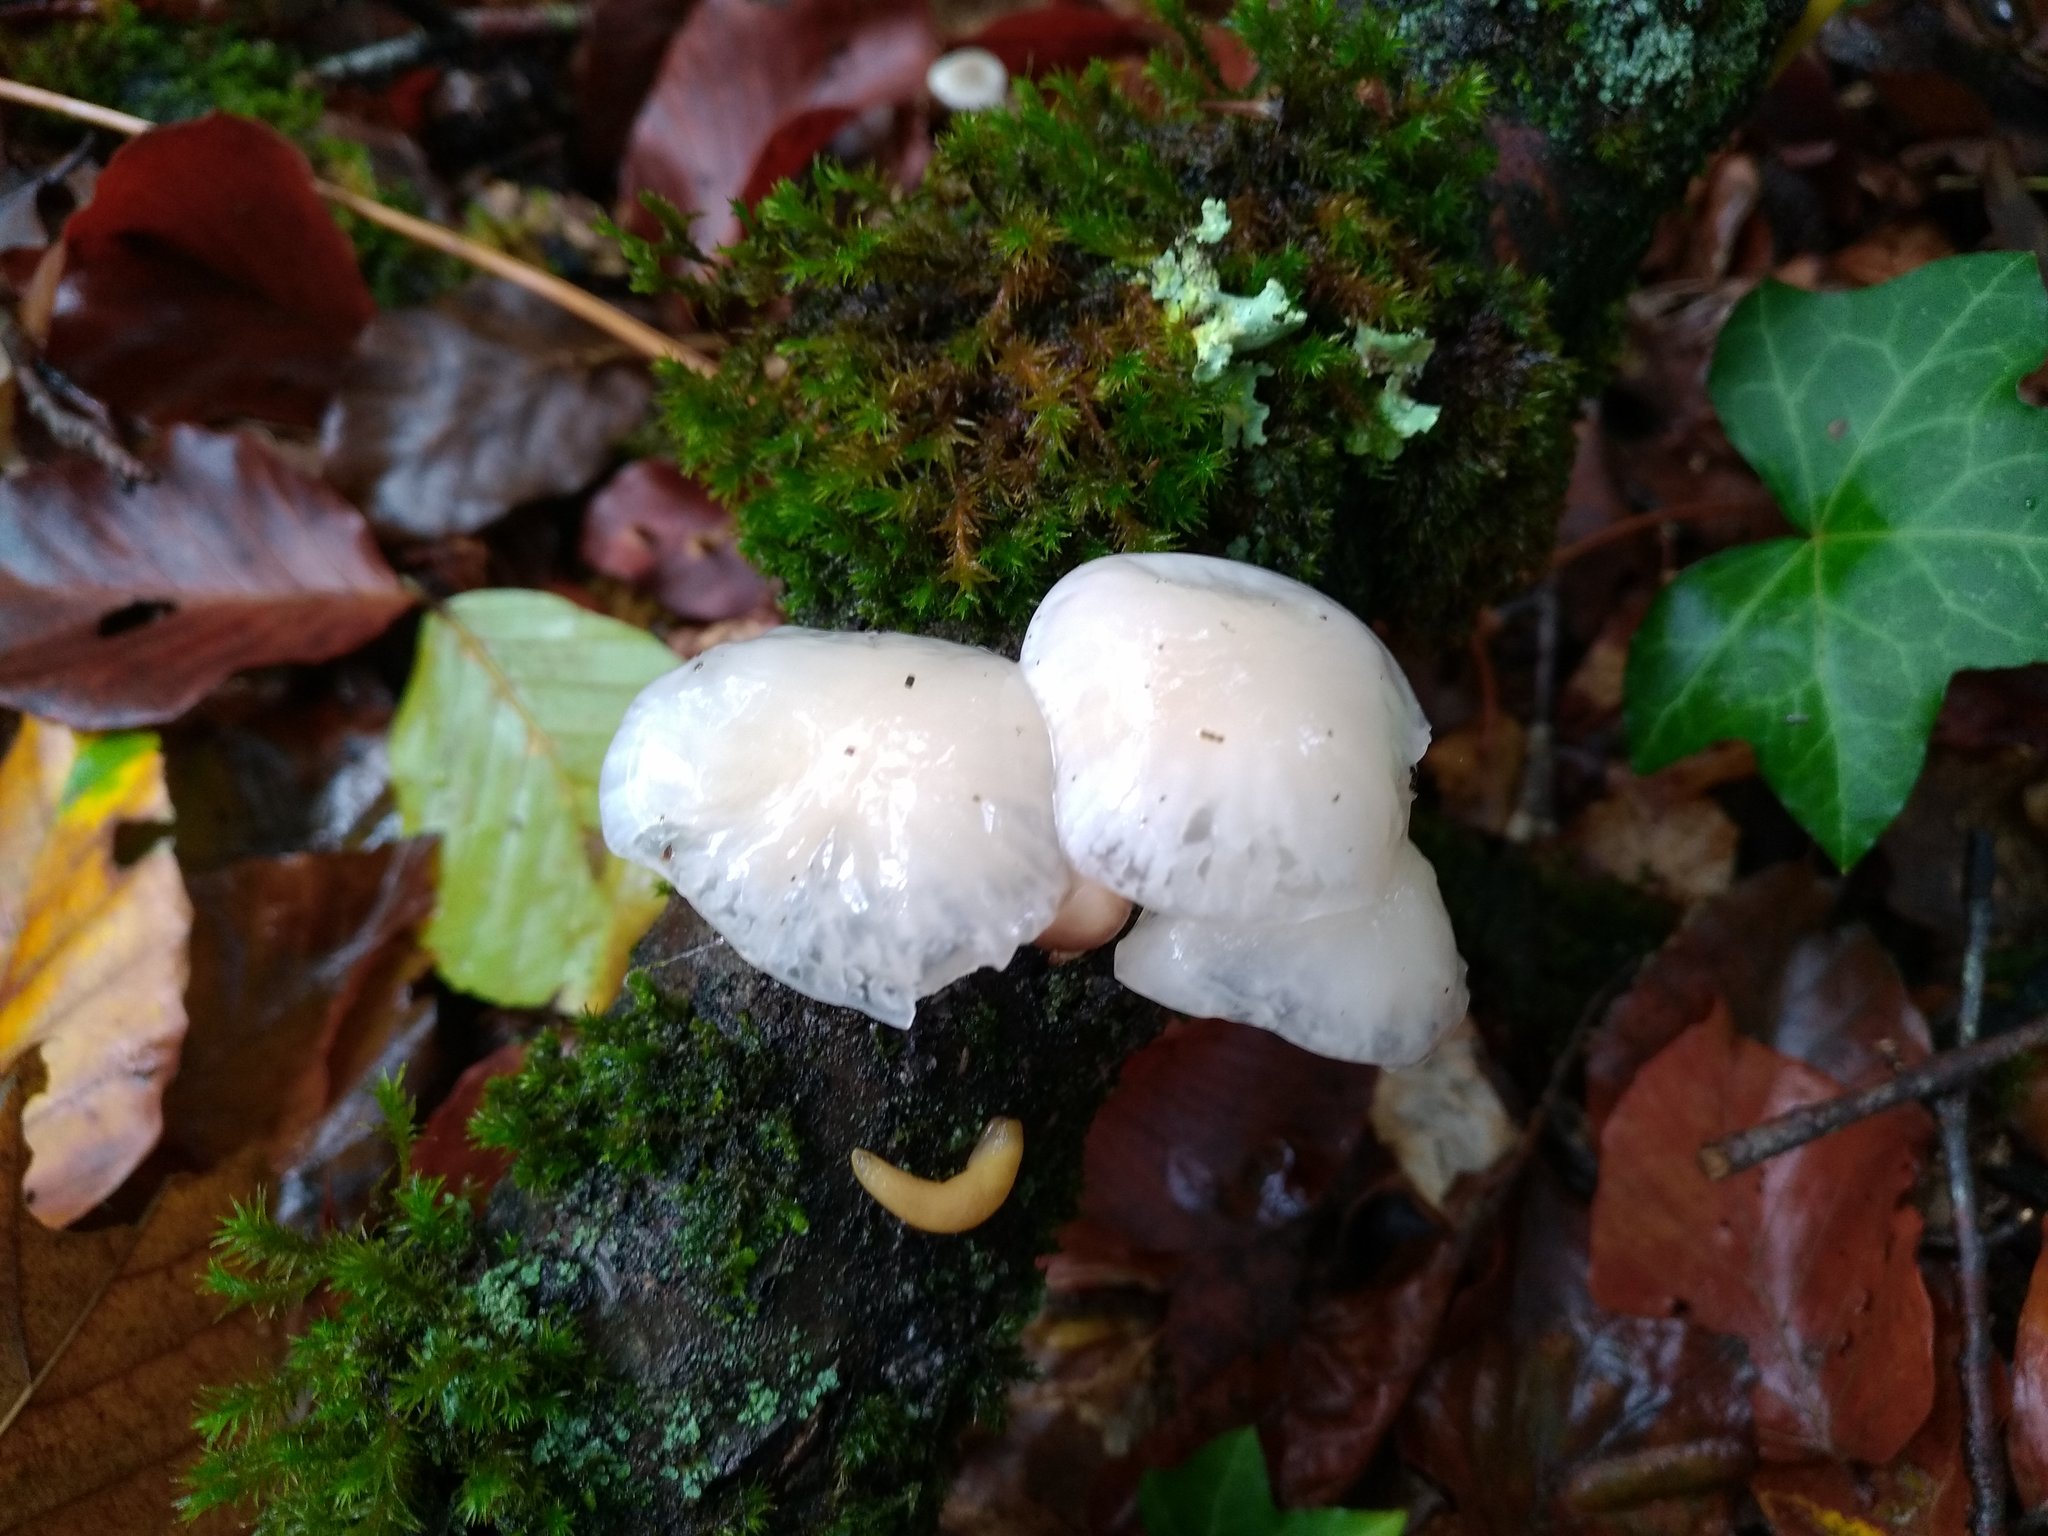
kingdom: Fungi
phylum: Basidiomycota
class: Agaricomycetes
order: Agaricales
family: Physalacriaceae
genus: Mucidula
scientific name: Mucidula mucida
